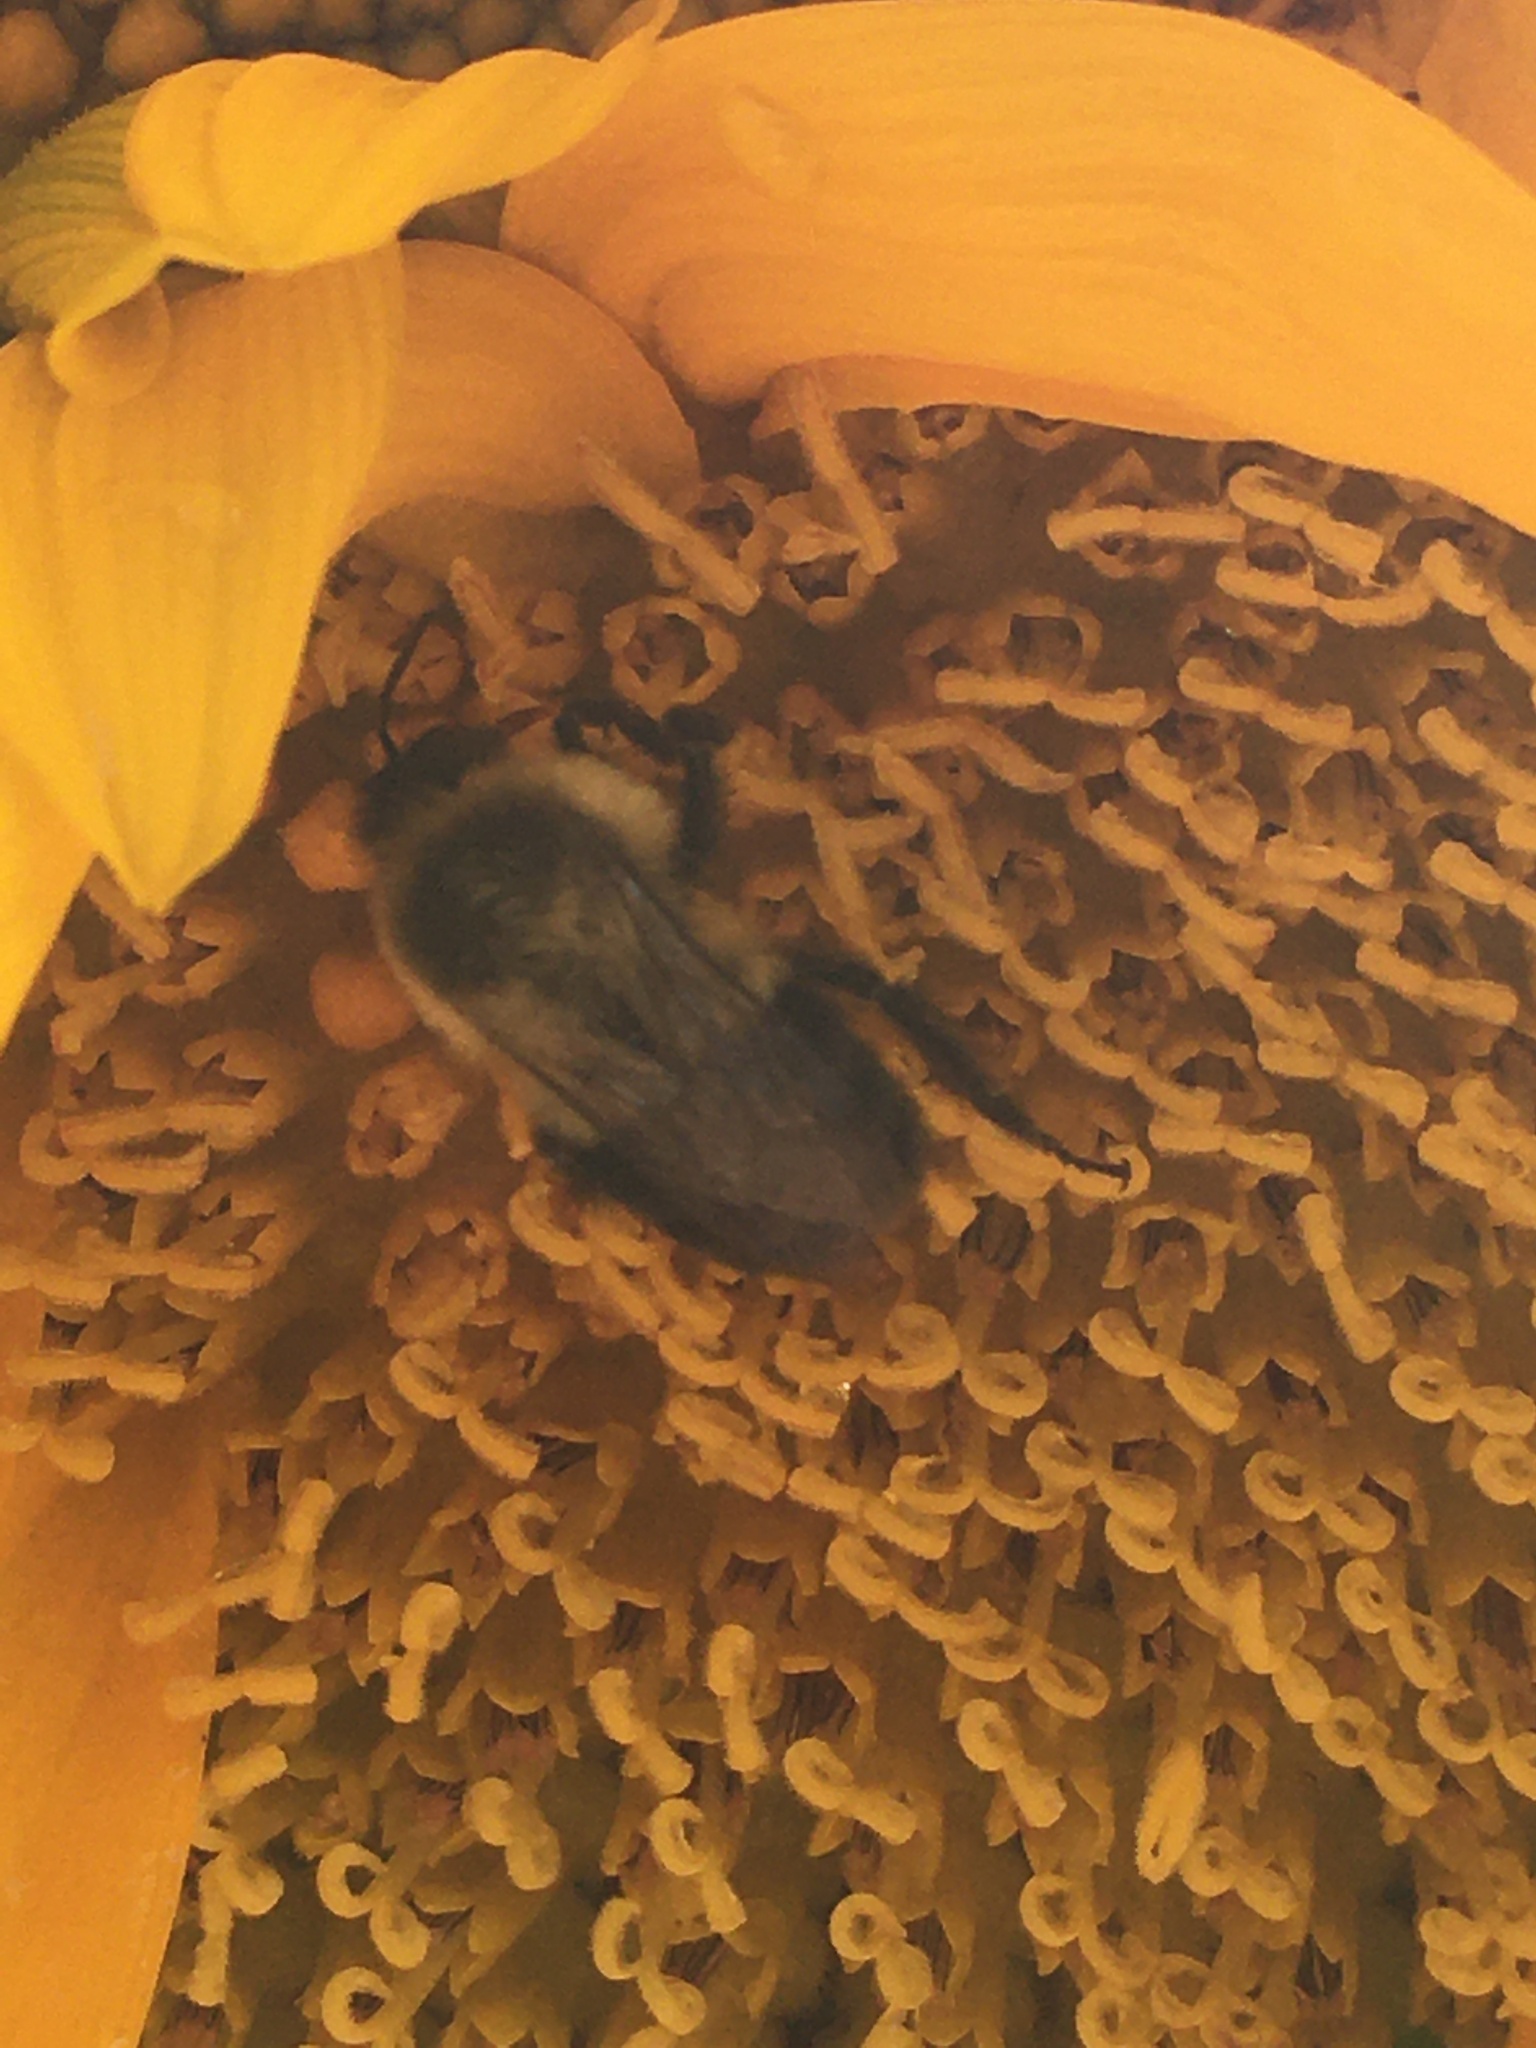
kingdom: Animalia
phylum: Arthropoda
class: Insecta
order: Hymenoptera
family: Apidae
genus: Bombus
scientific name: Bombus impatiens
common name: Common eastern bumble bee
